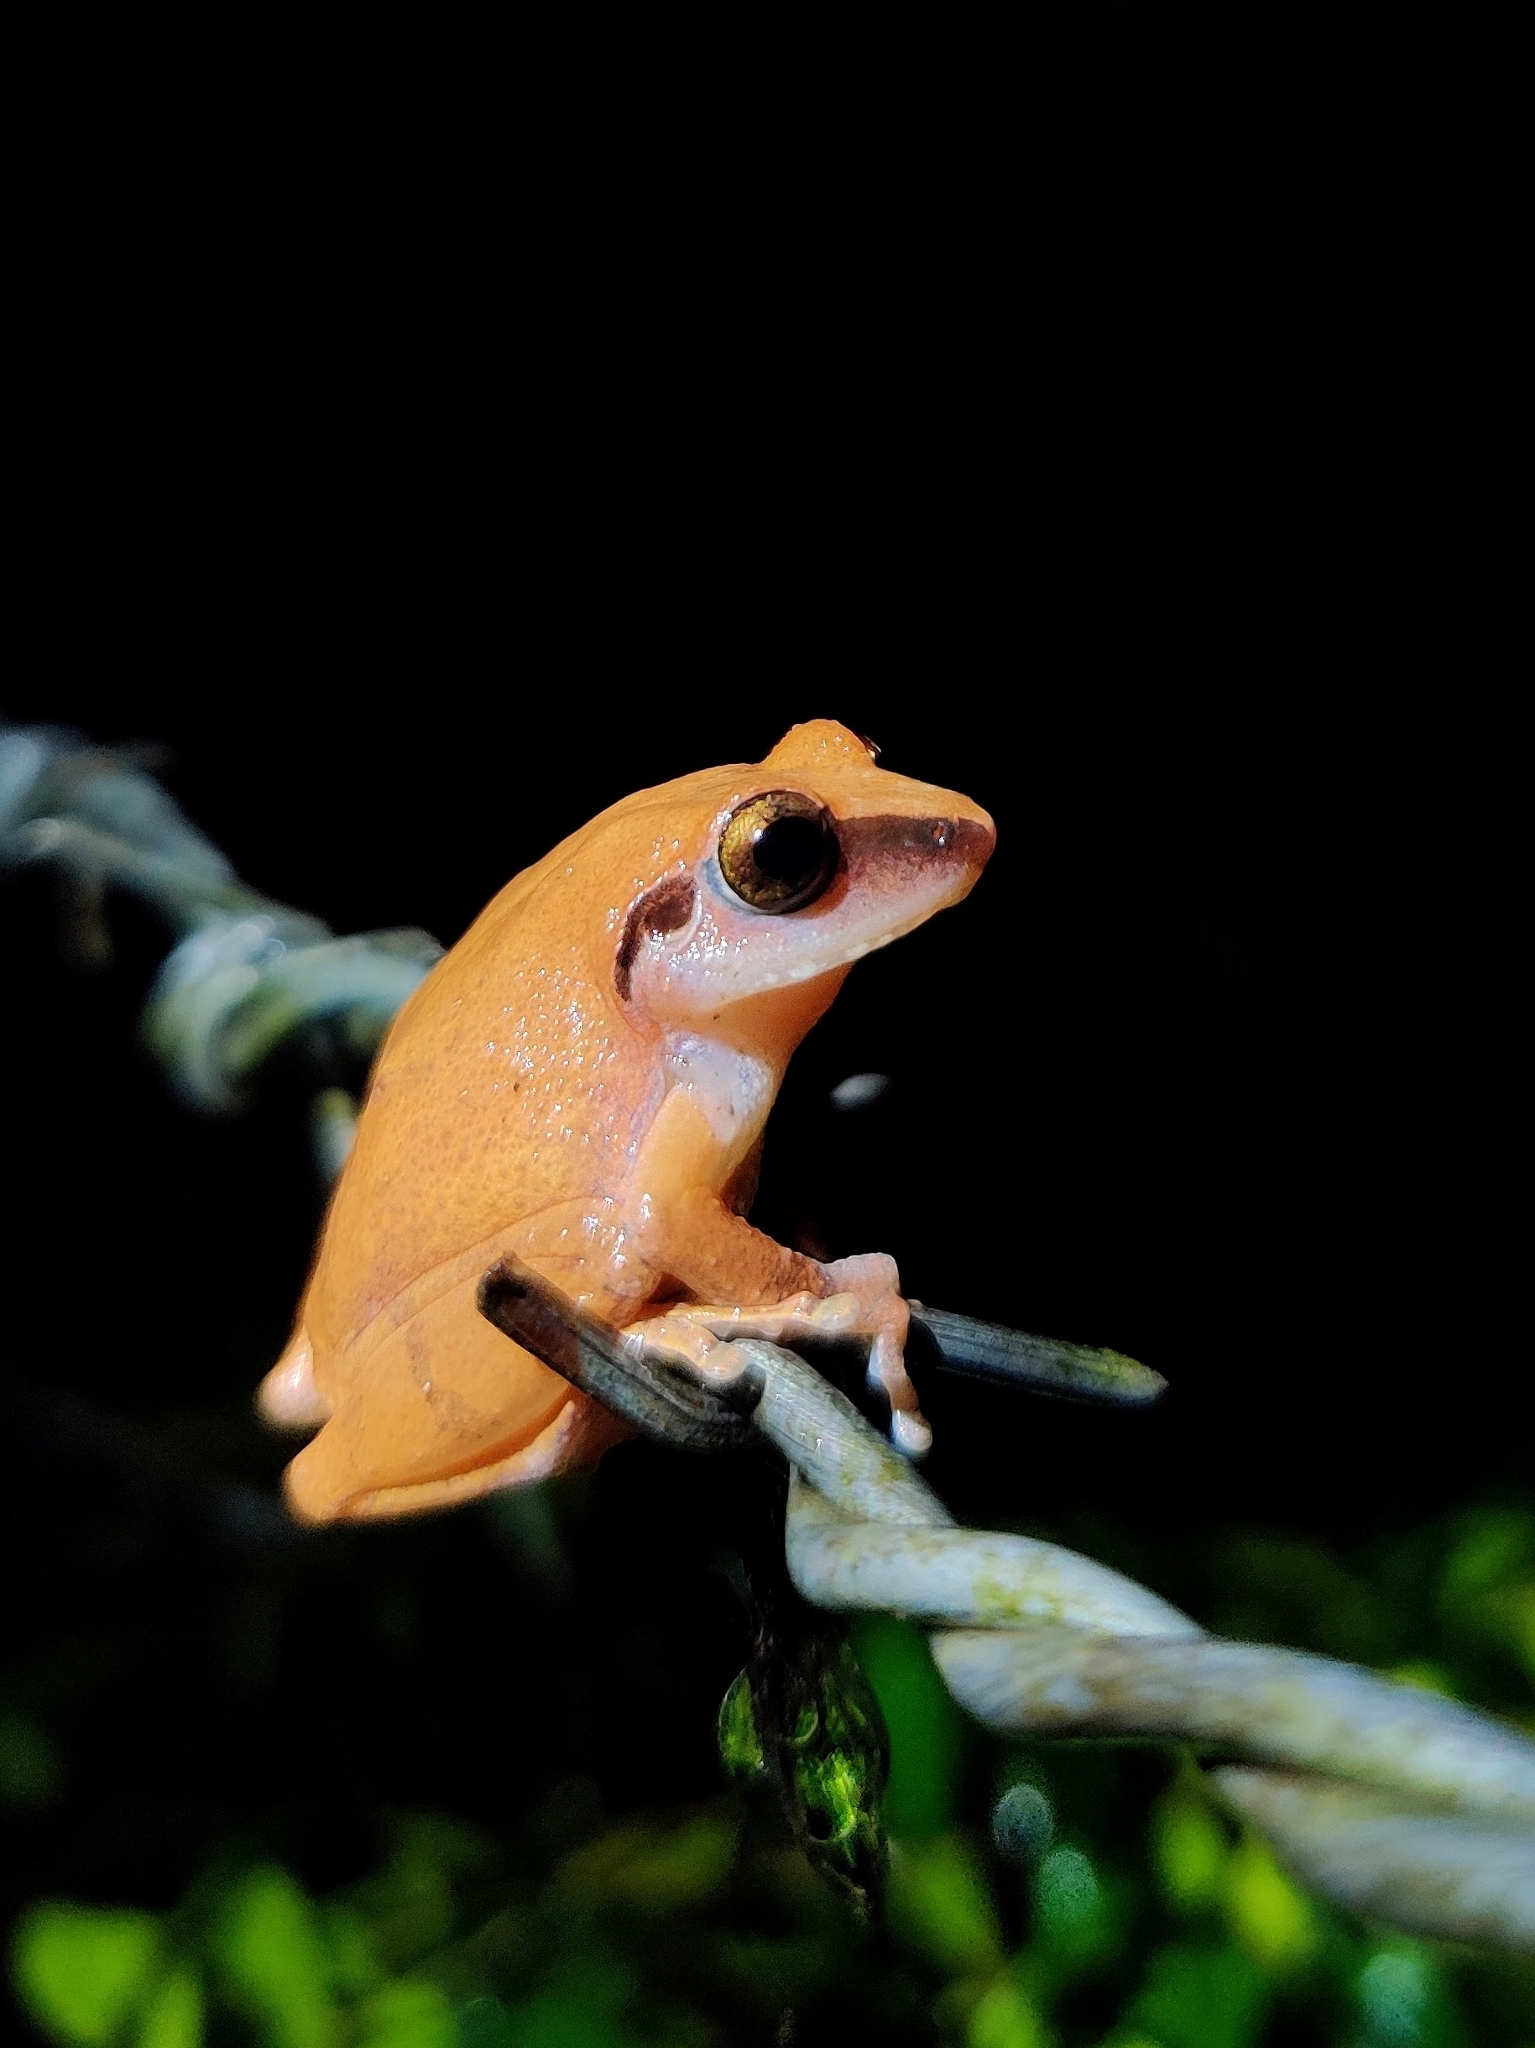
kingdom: Animalia
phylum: Chordata
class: Amphibia
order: Anura
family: Rhacophoridae
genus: Pseudophilautus
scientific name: Pseudophilautus wynaadensis
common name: Dark-eared bush frog
